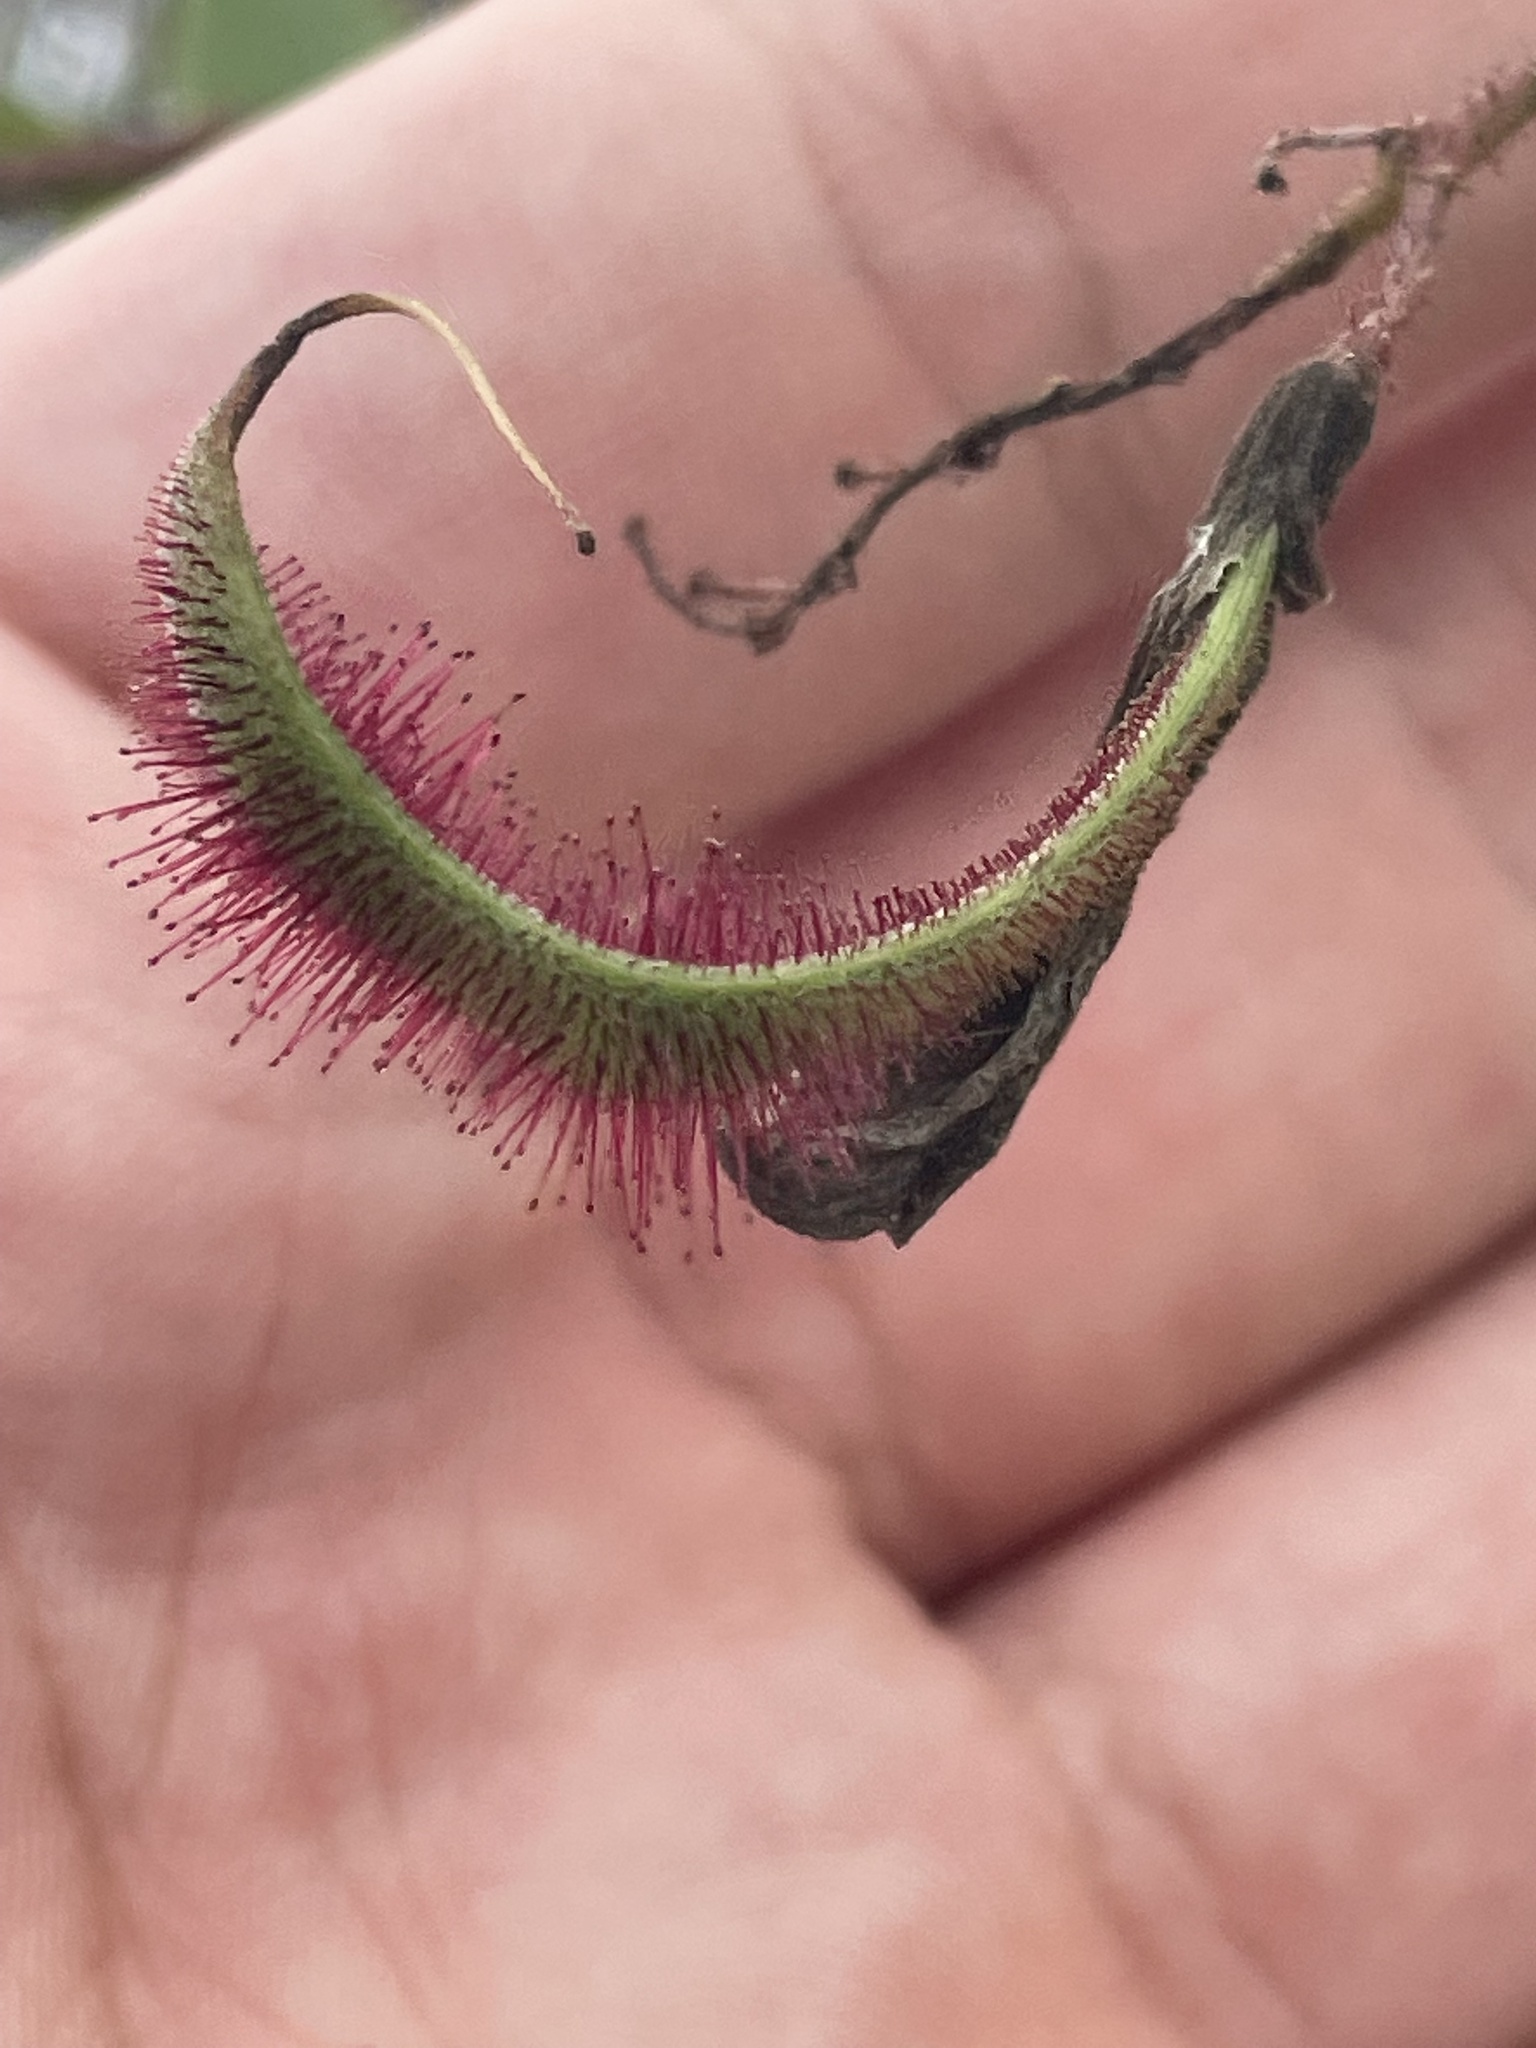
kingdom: Plantae
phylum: Tracheophyta
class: Magnoliopsida
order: Fabales
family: Fabaceae
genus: Robinia
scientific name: Robinia viscosa
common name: Clammy locust
